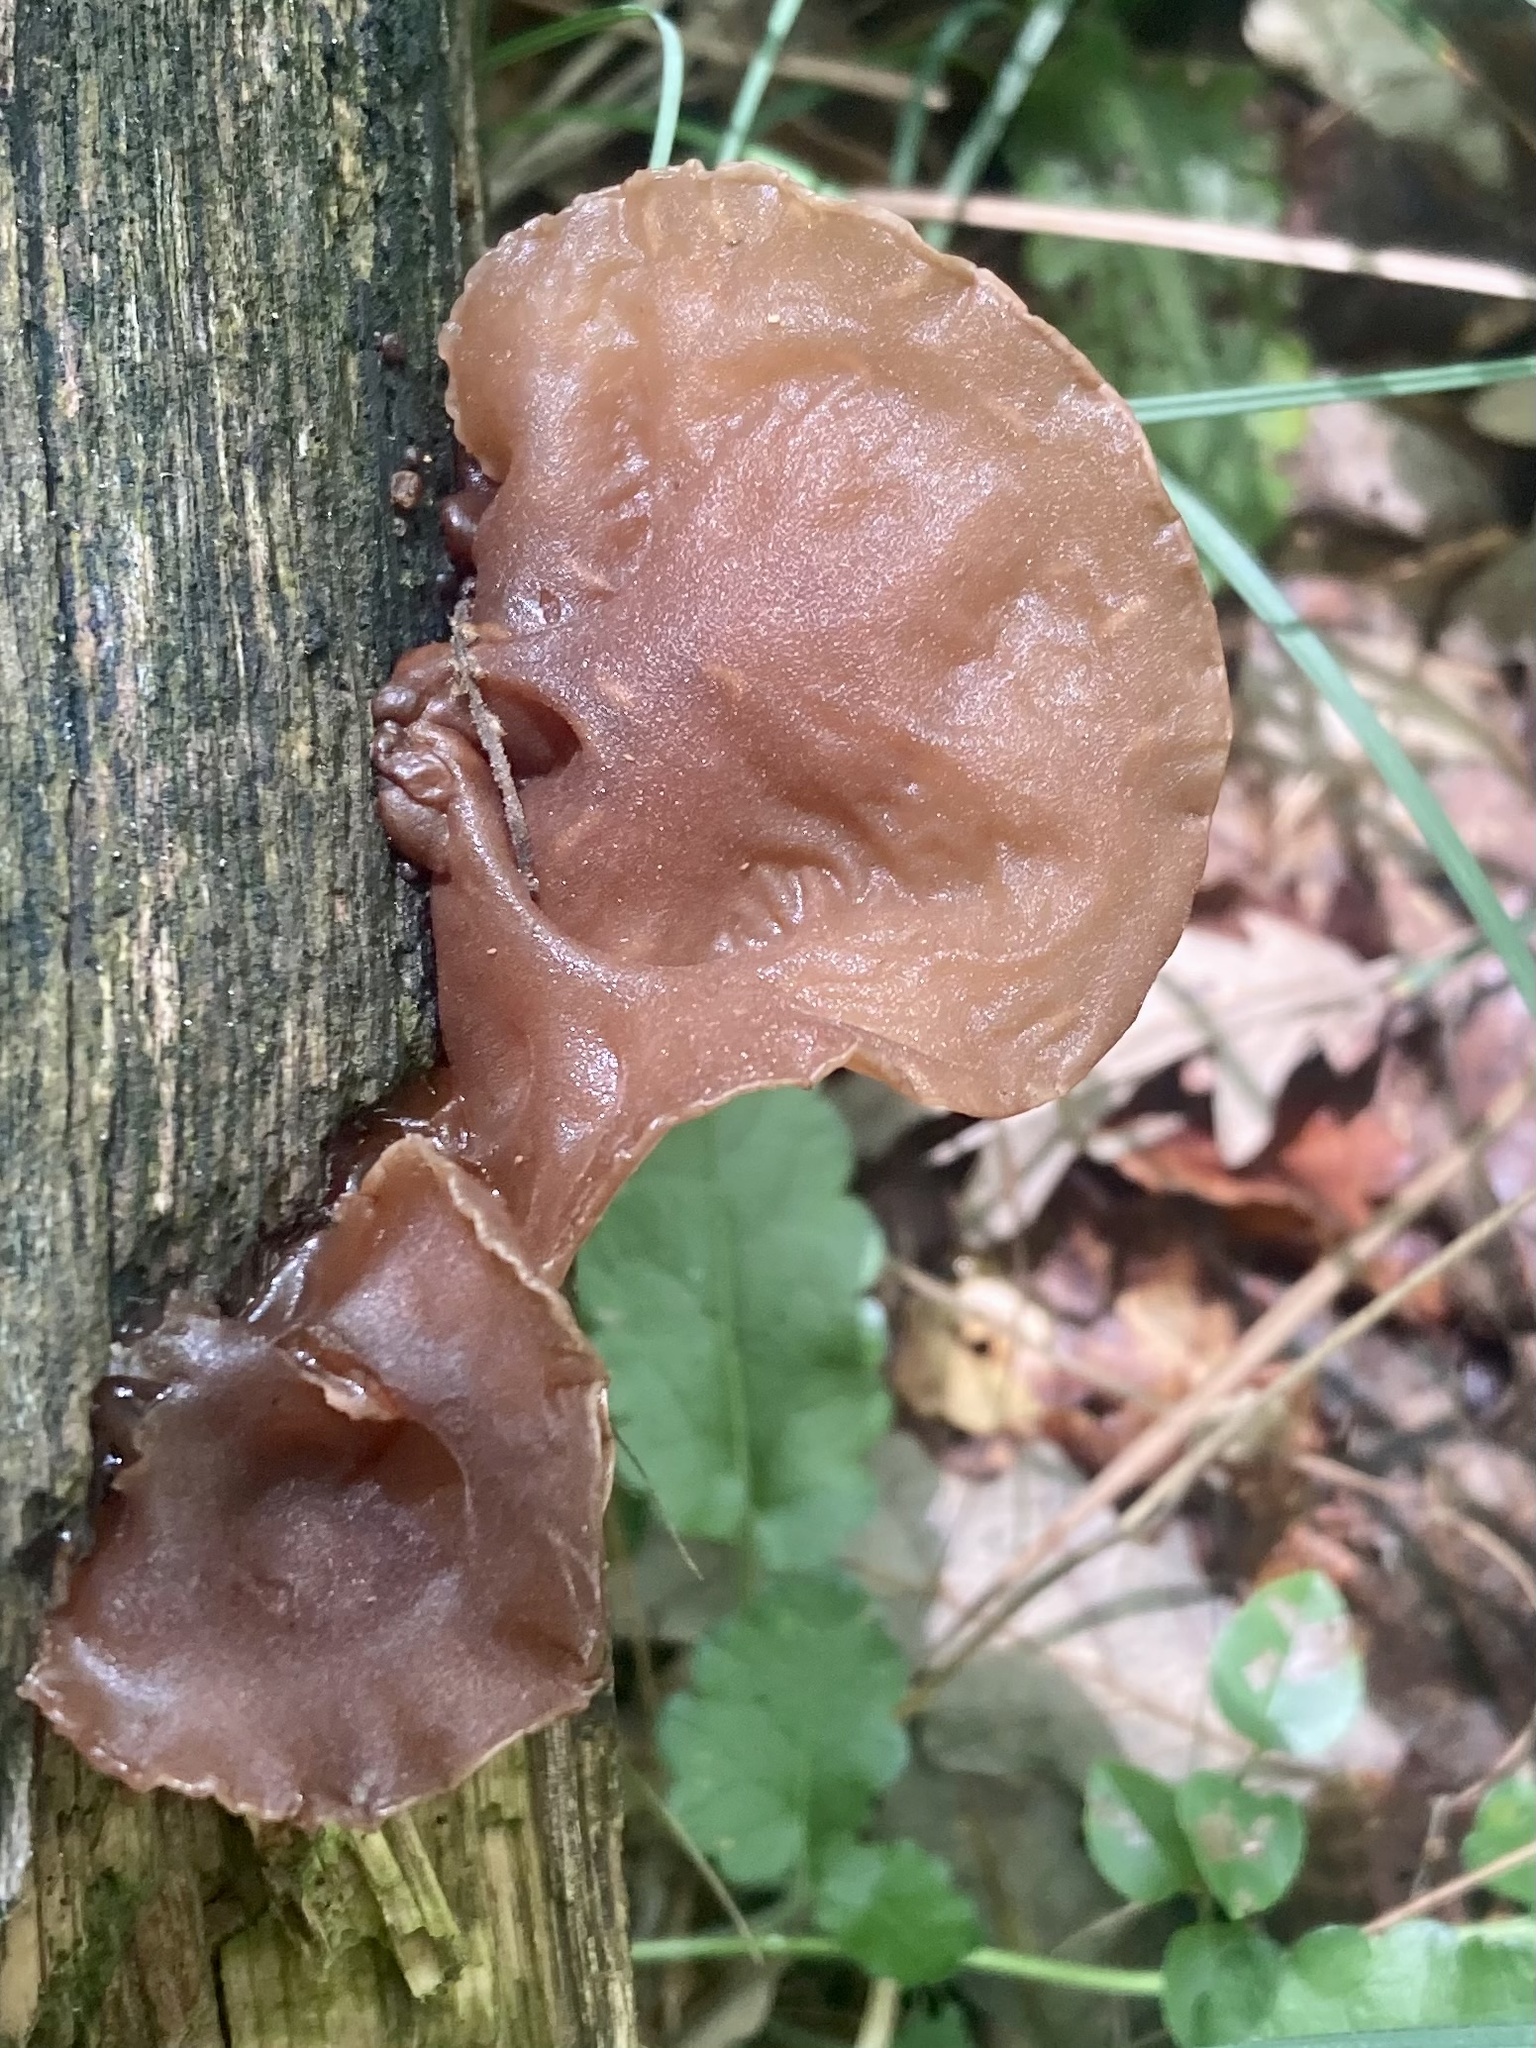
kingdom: Fungi
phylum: Basidiomycota
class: Agaricomycetes
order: Auriculariales
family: Auriculariaceae
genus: Auricularia
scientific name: Auricularia auricula-judae
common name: Jelly ear
